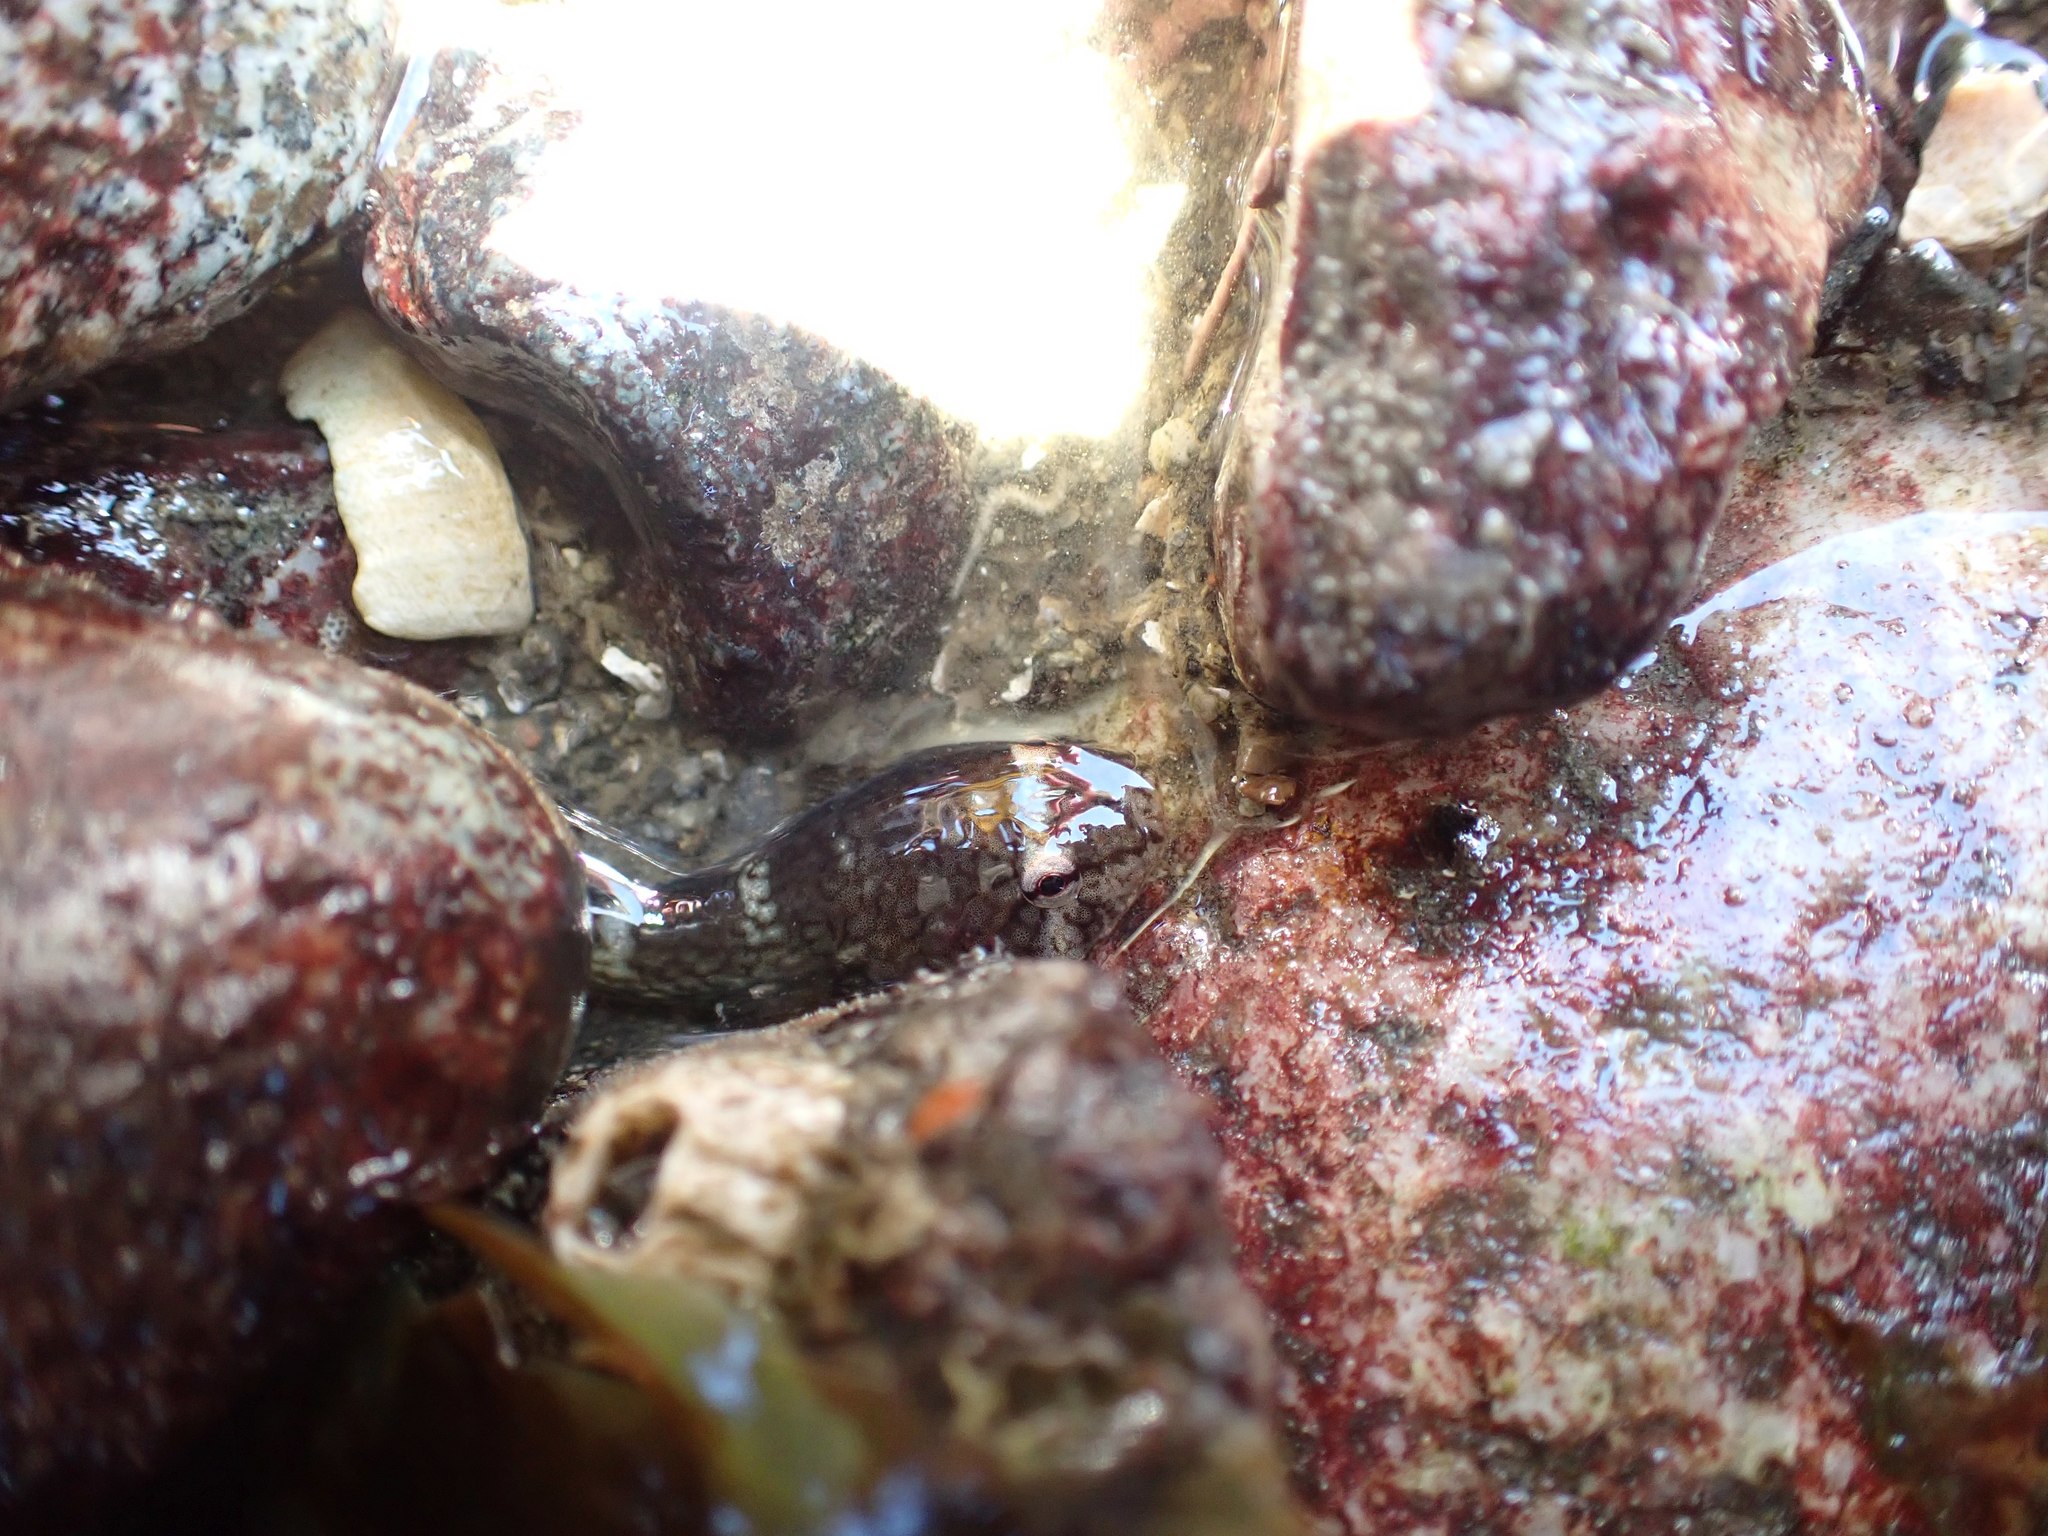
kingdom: Animalia
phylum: Chordata
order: Gobiesociformes
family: Gobiesocidae
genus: Gobiesox
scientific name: Gobiesox maeandricus
